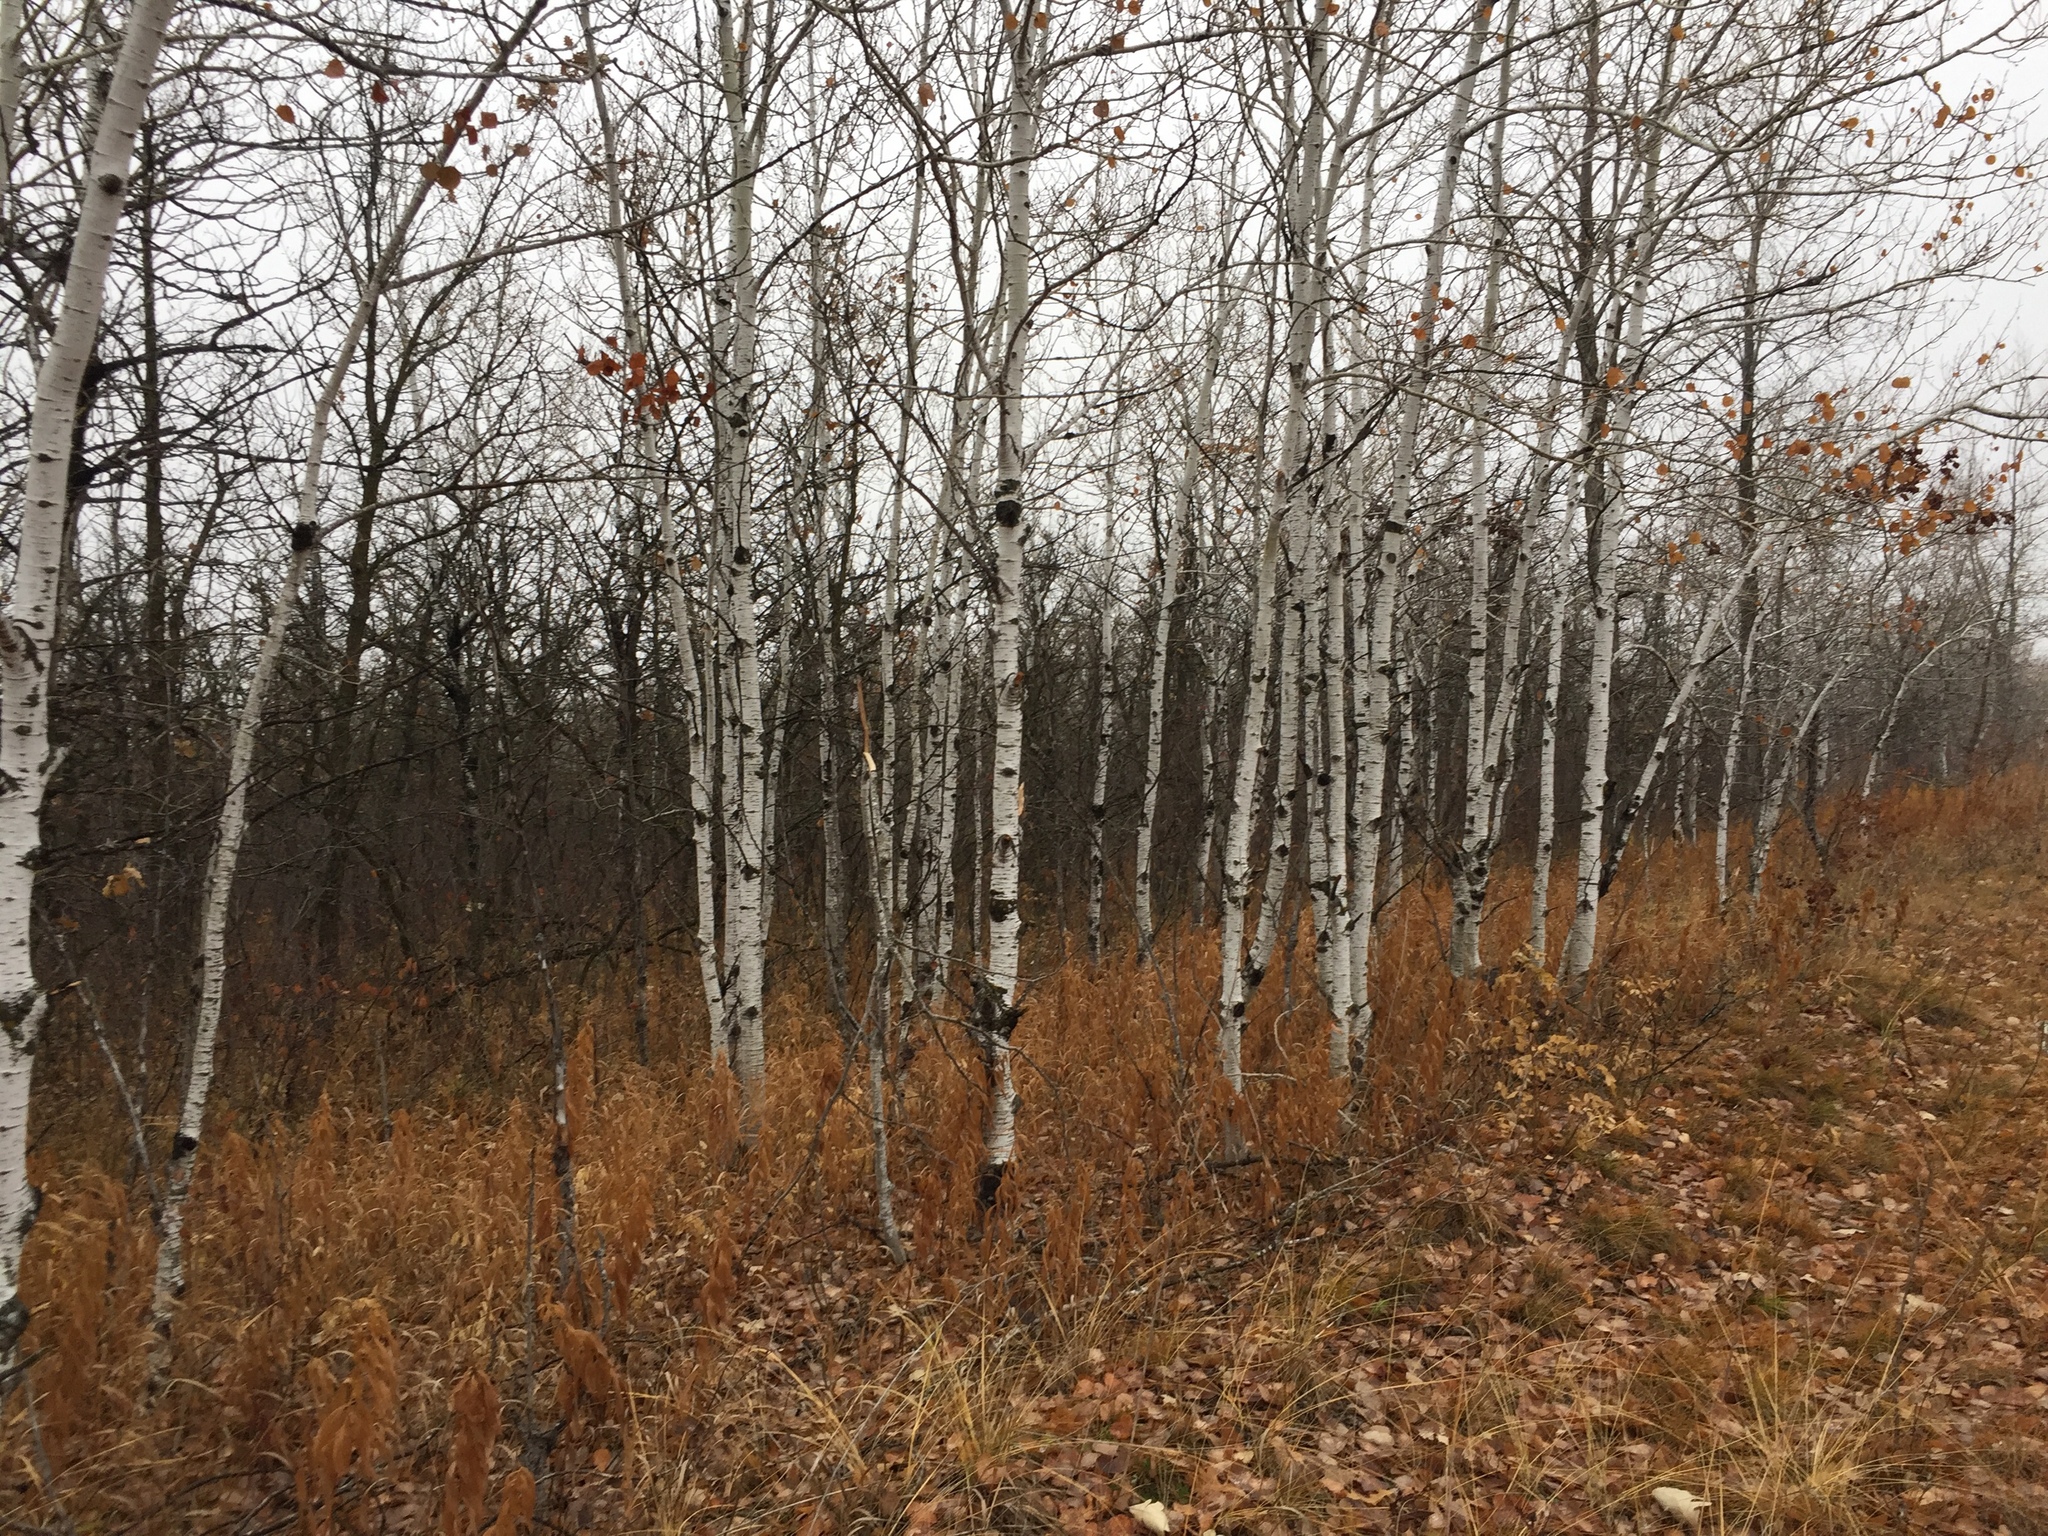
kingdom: Plantae
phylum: Tracheophyta
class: Magnoliopsida
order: Malpighiales
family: Salicaceae
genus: Populus
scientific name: Populus tremuloides
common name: Quaking aspen
